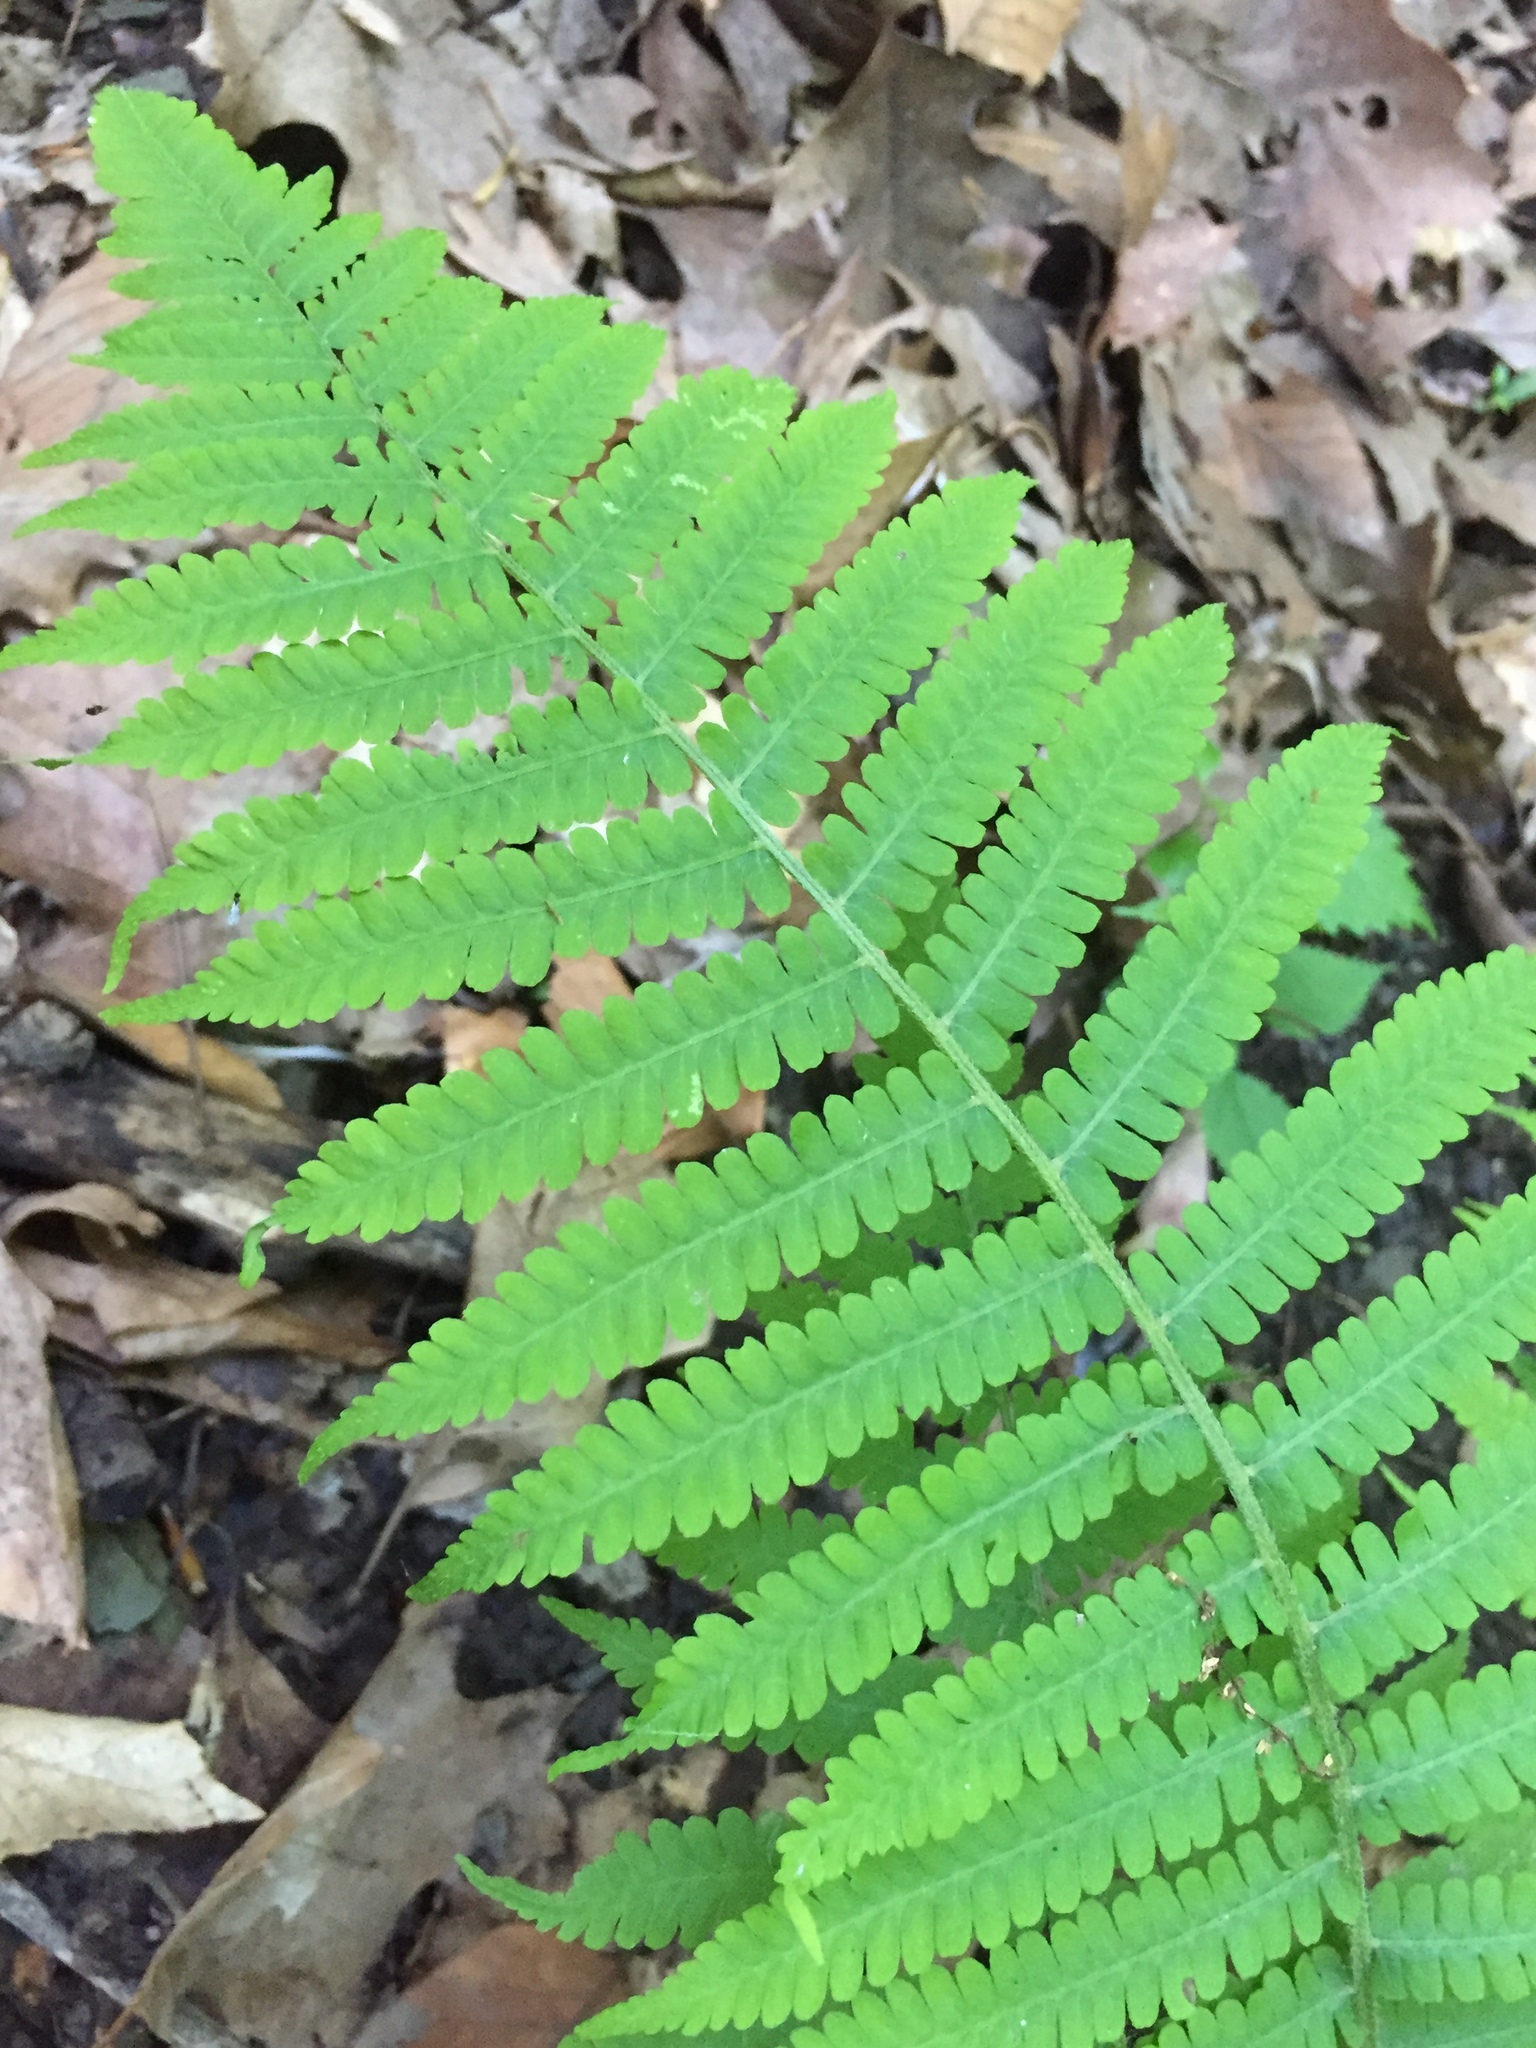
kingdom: Plantae
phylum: Tracheophyta
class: Polypodiopsida
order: Polypodiales
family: Athyriaceae
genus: Deparia
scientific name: Deparia acrostichoides
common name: Silver false spleenwort
